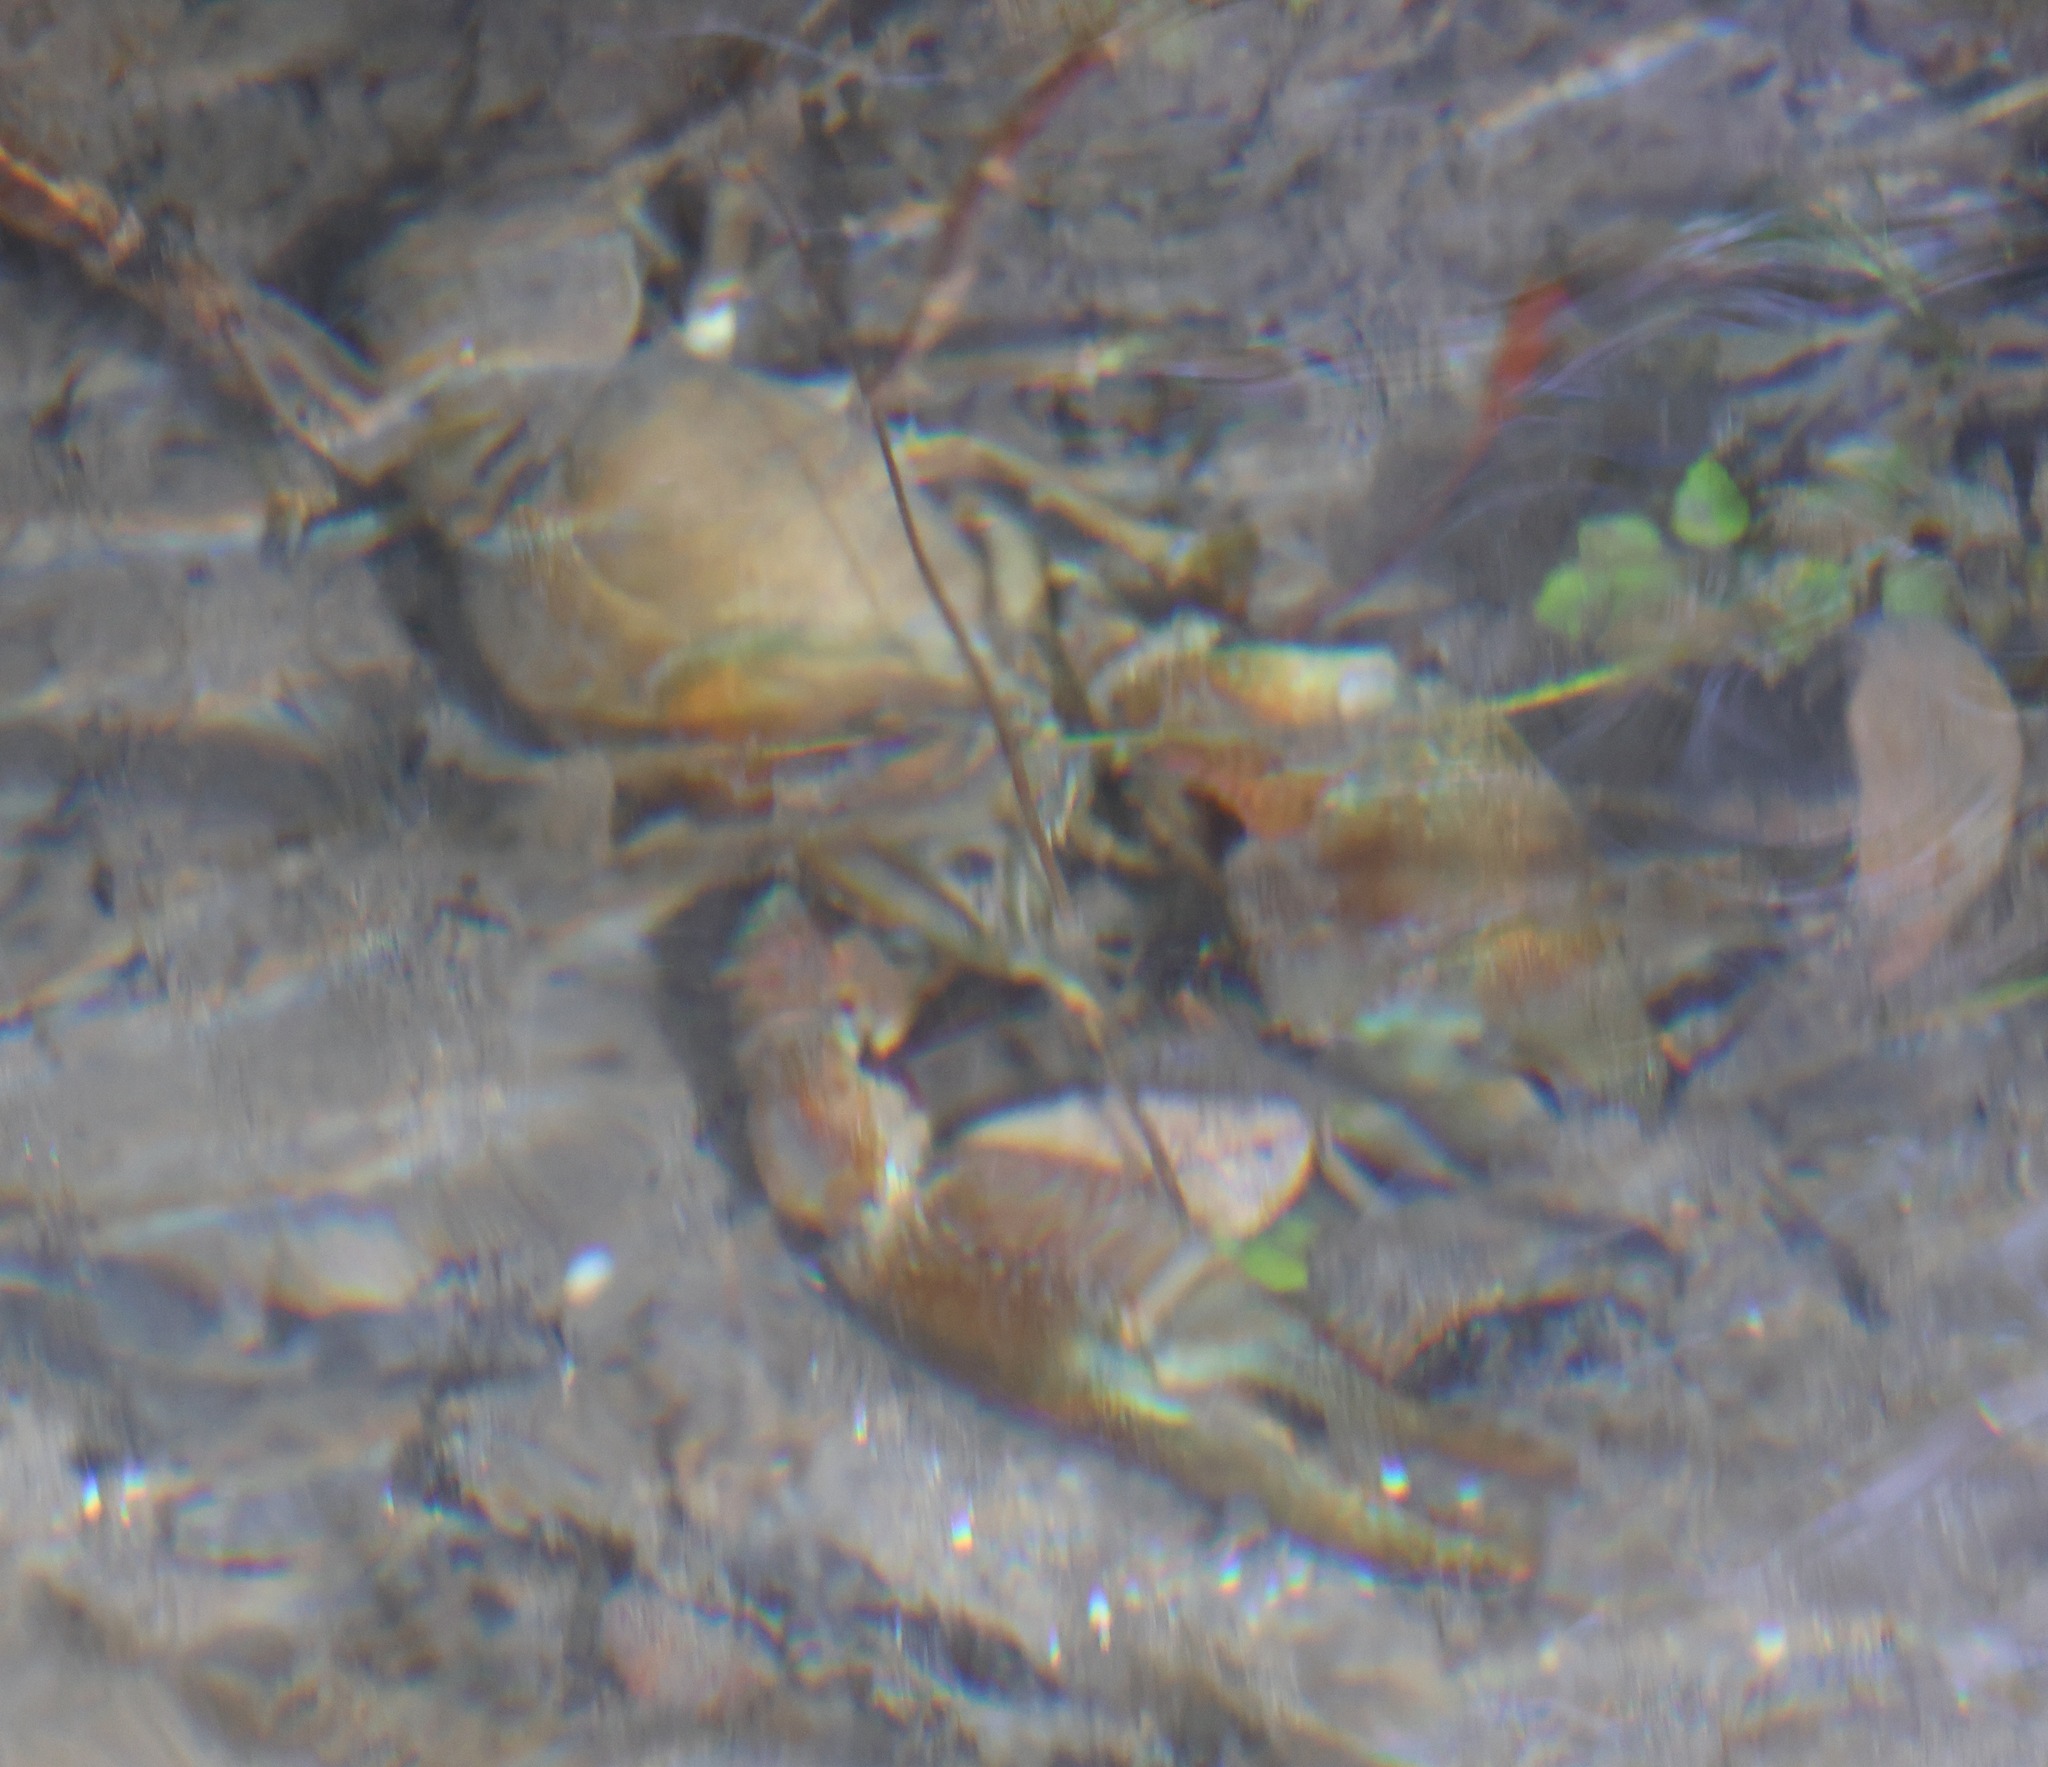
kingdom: Animalia
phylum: Arthropoda
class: Malacostraca
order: Decapoda
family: Astacidae
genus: Pacifastacus
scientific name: Pacifastacus leniusculus
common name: Signal crayfish
